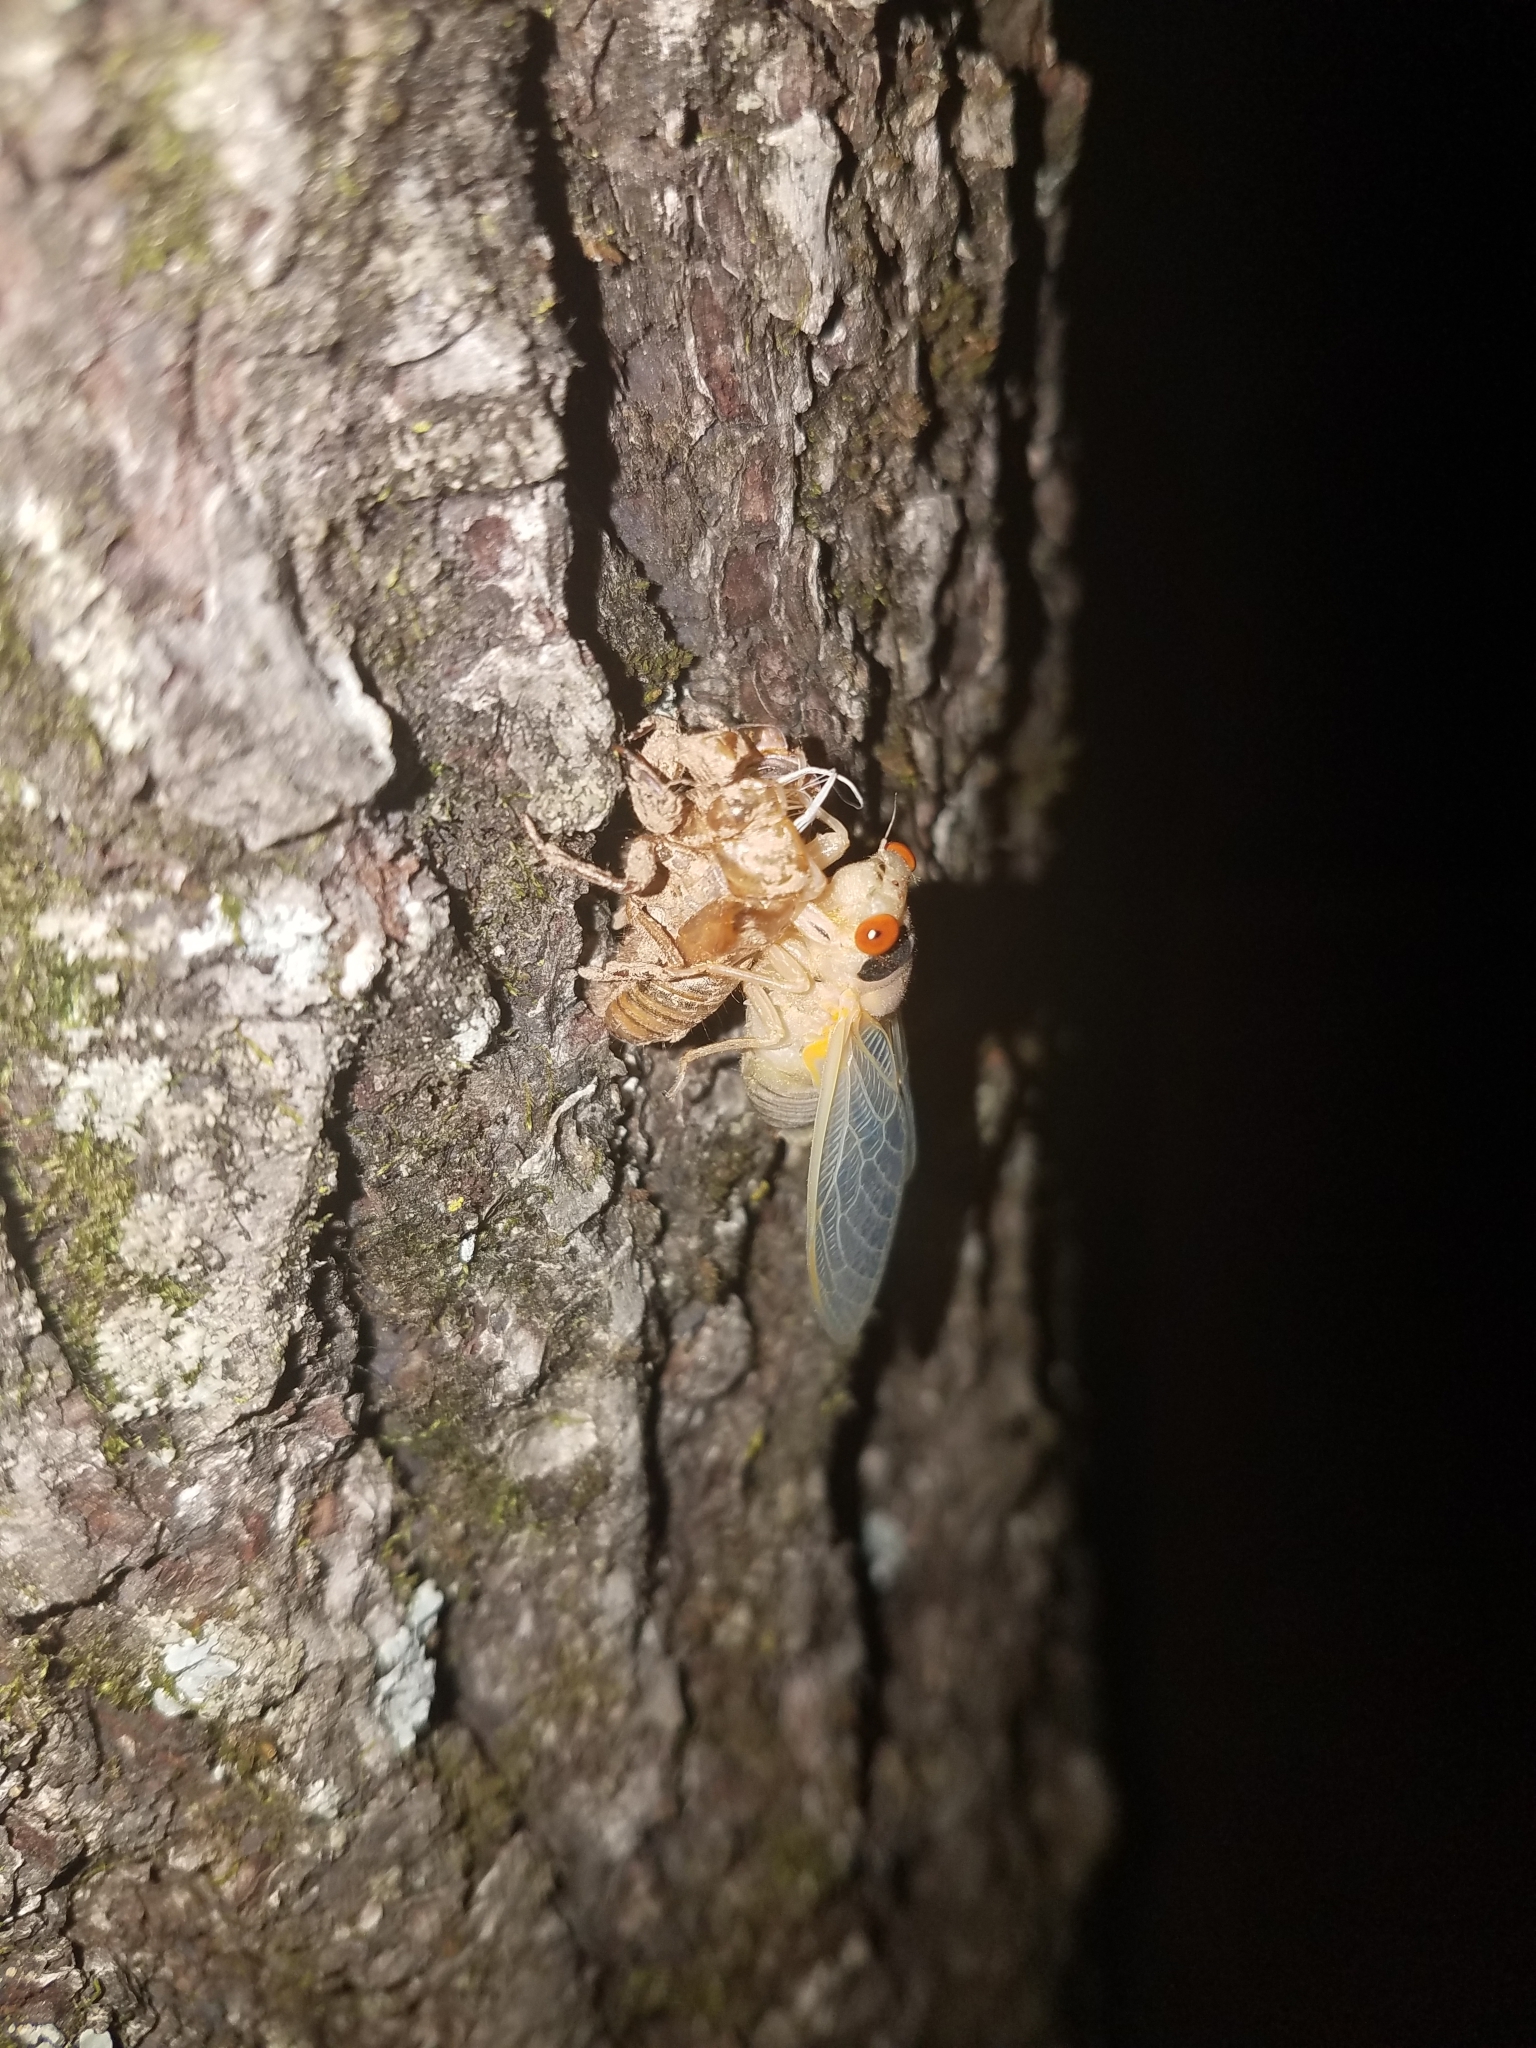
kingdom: Animalia
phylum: Arthropoda
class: Insecta
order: Hemiptera
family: Cicadidae
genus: Magicicada
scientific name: Magicicada
